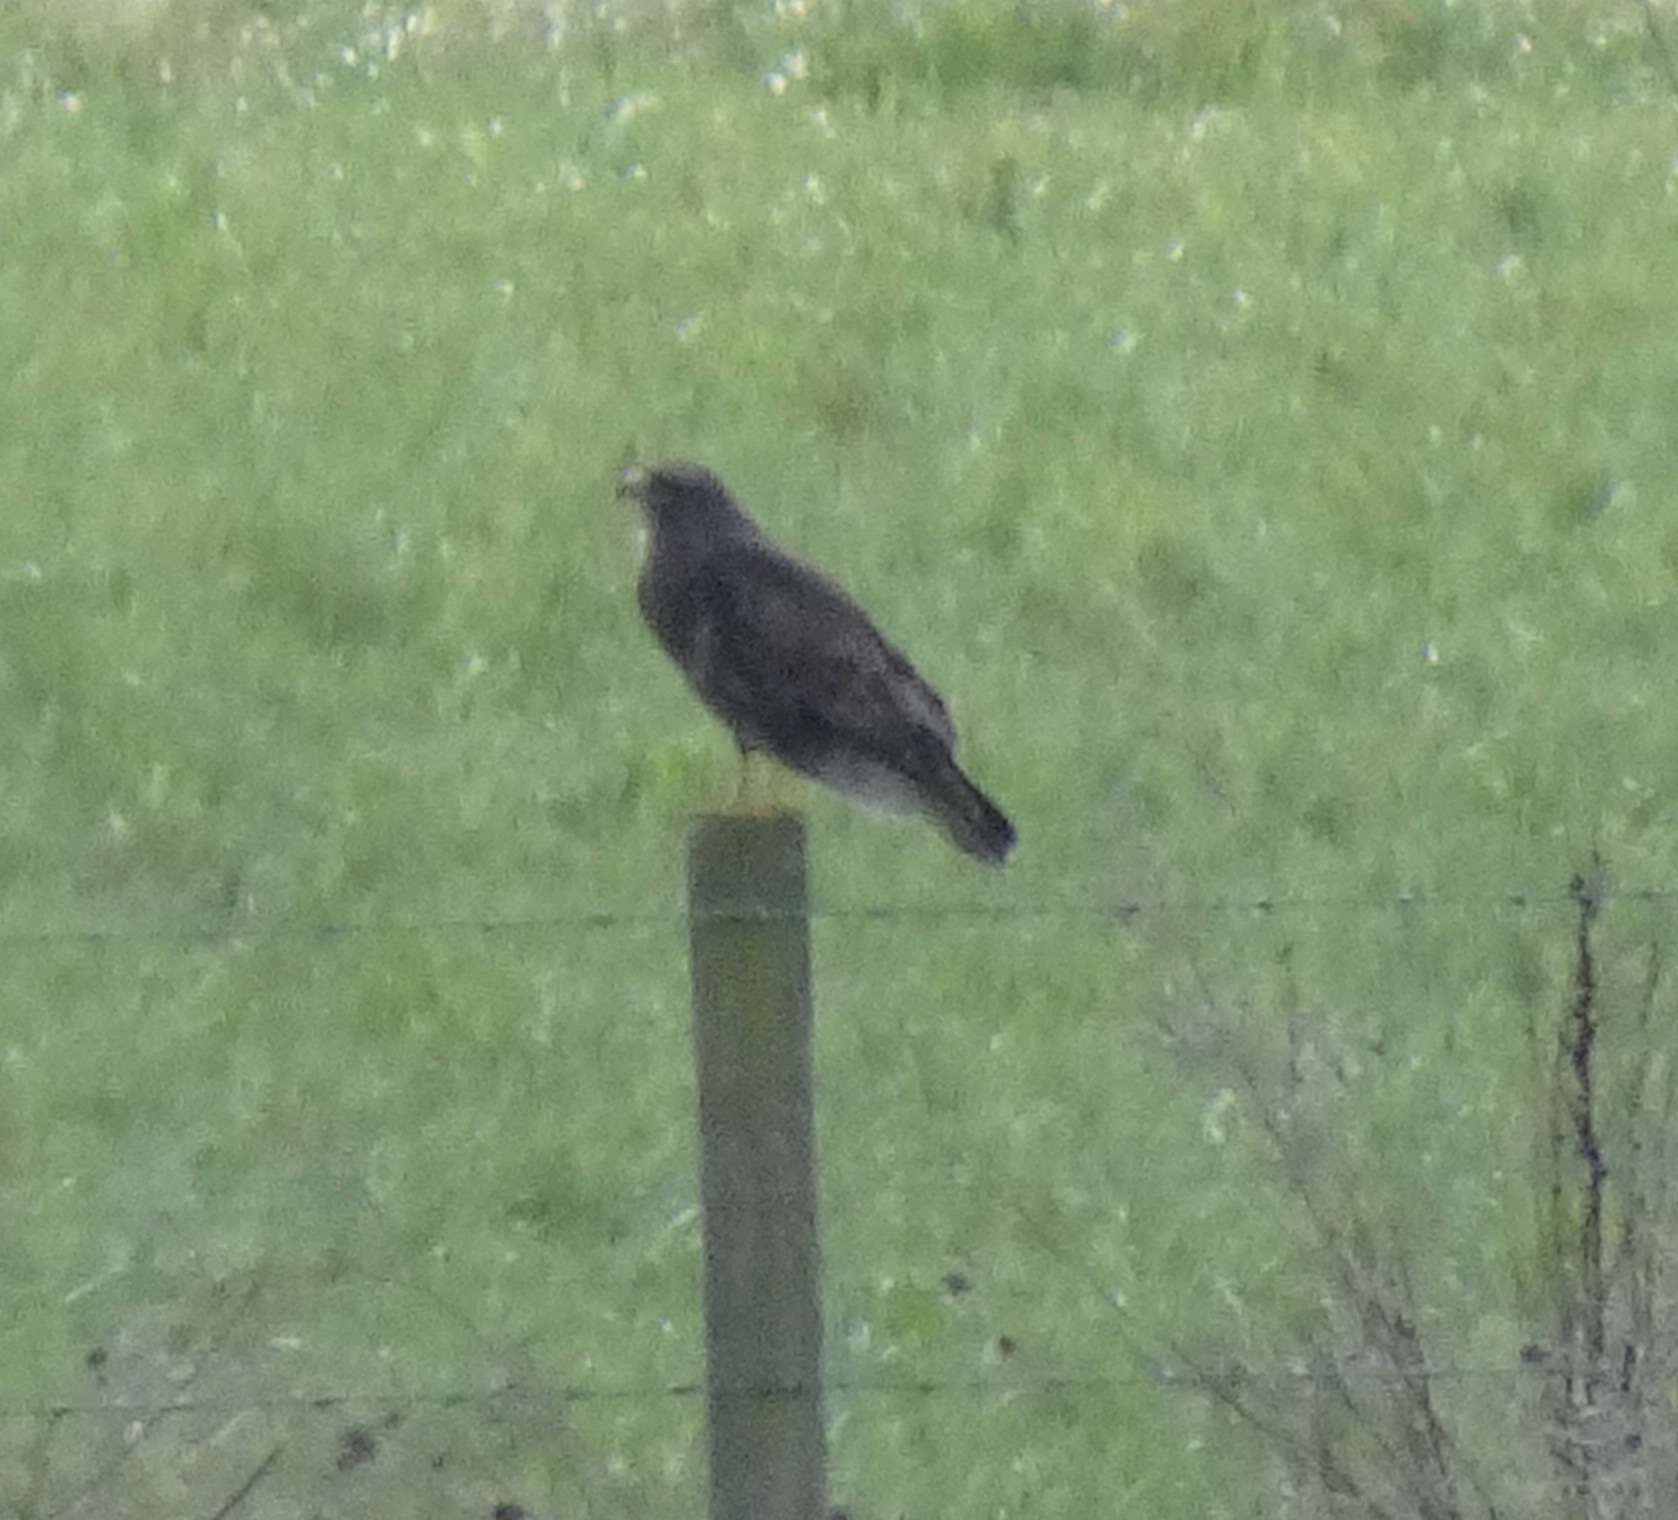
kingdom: Animalia
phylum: Chordata
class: Aves
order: Accipitriformes
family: Accipitridae
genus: Buteo
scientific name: Buteo buteo
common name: Common buzzard
